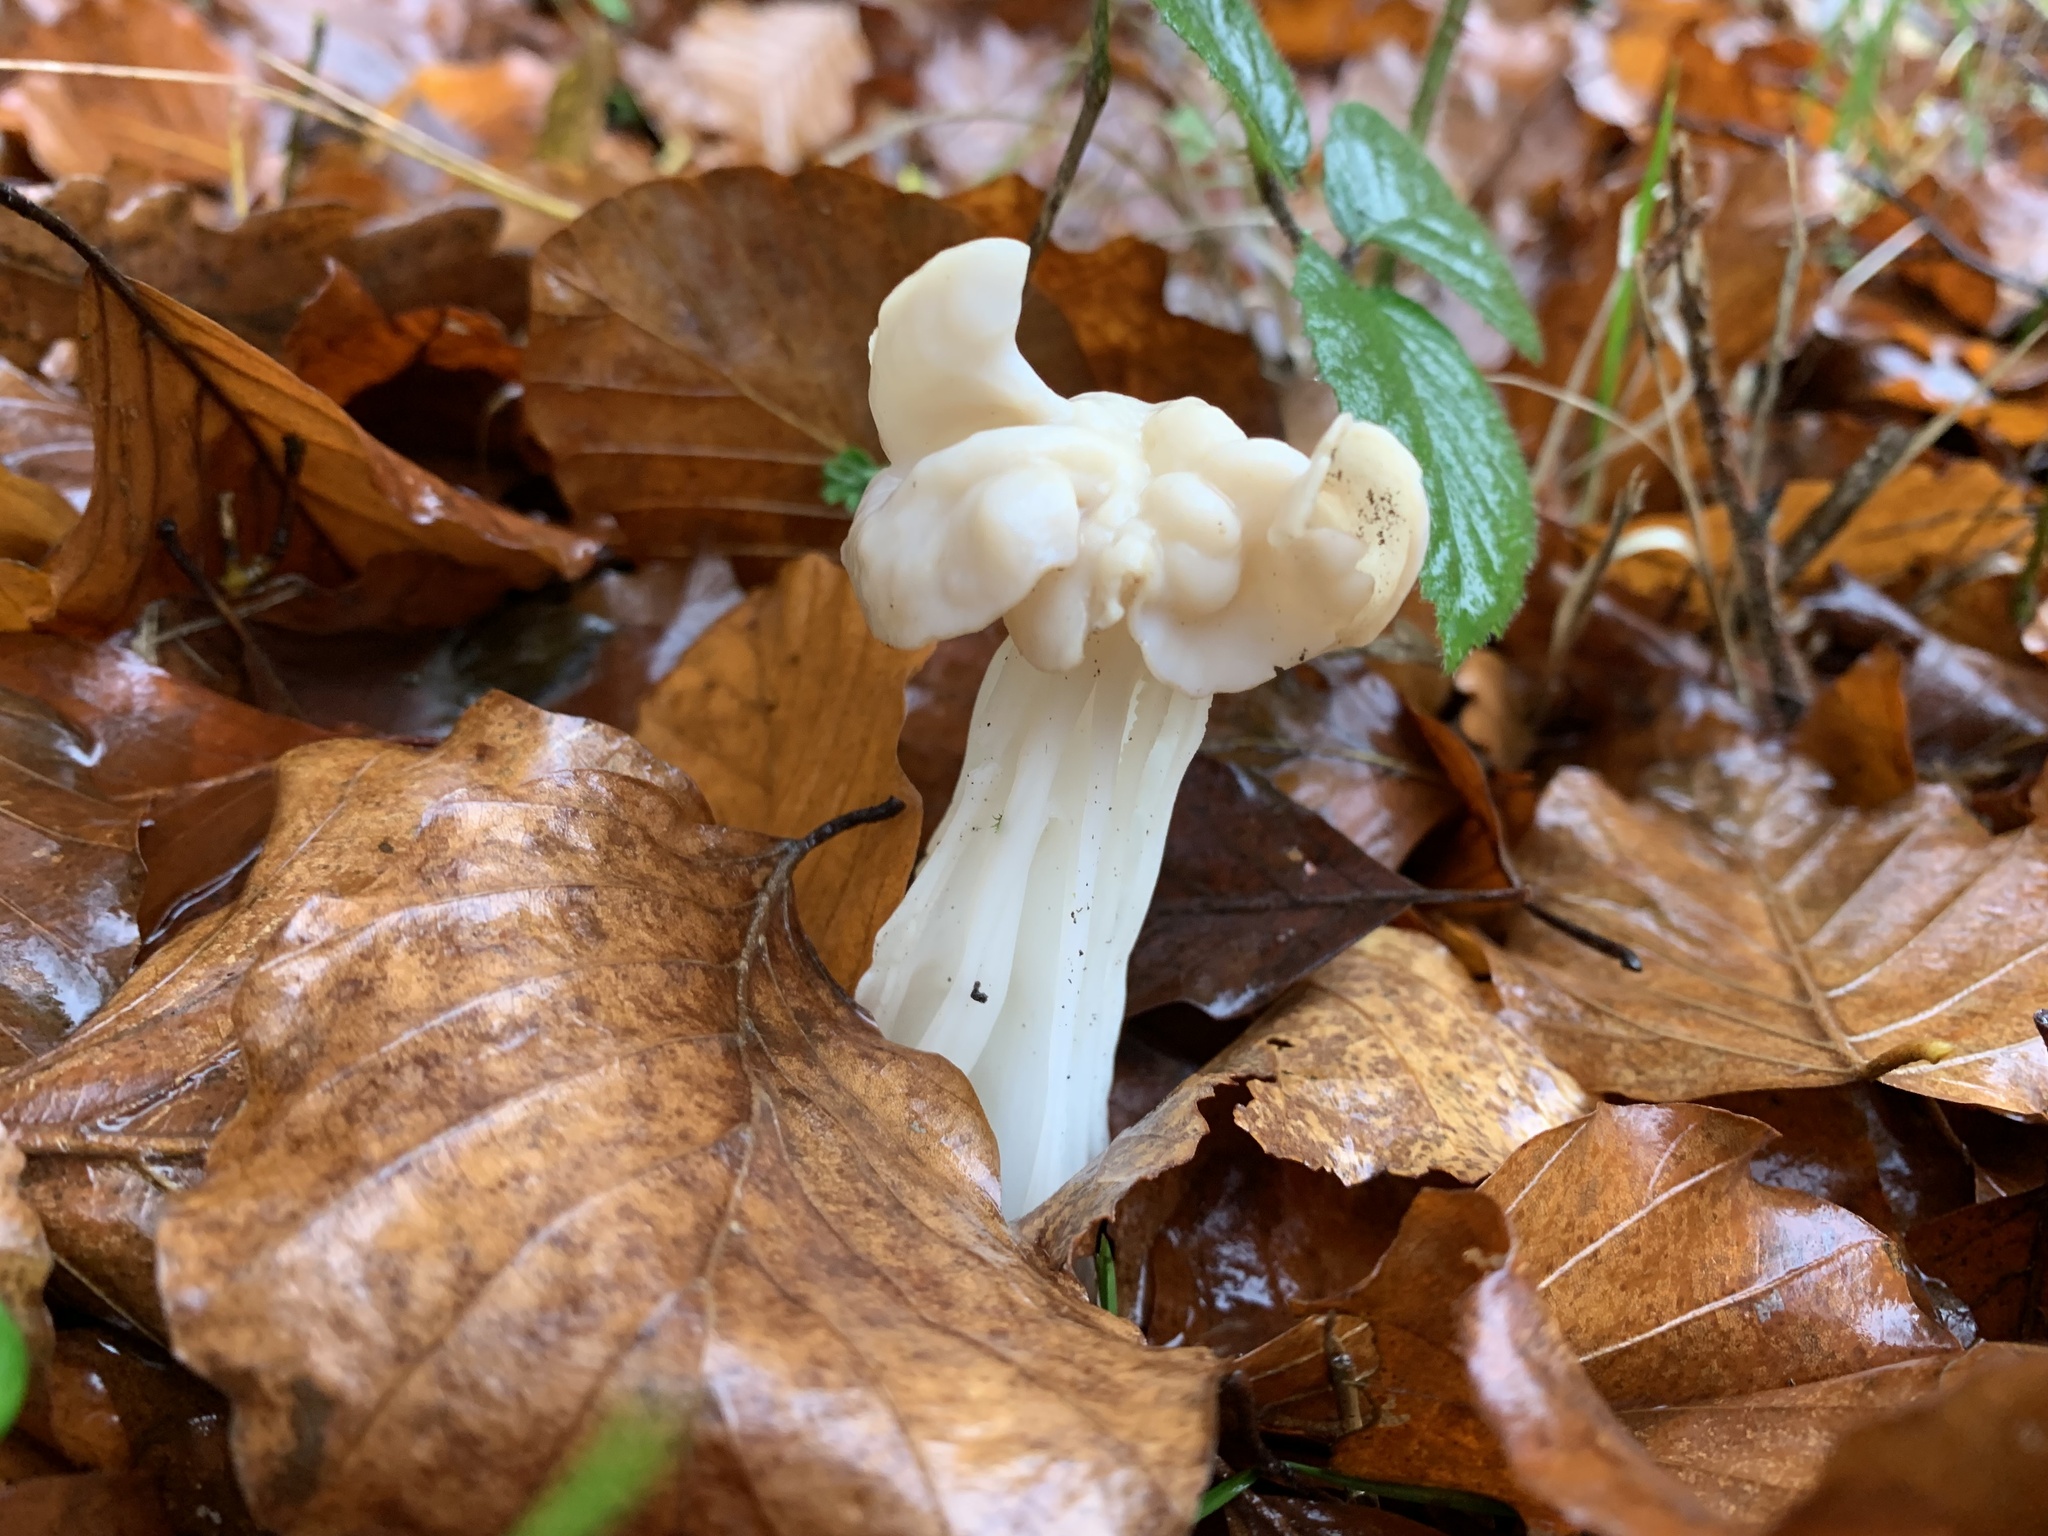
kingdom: Fungi
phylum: Ascomycota
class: Pezizomycetes
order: Pezizales
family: Helvellaceae
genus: Helvella
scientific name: Helvella crispa
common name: White saddle
